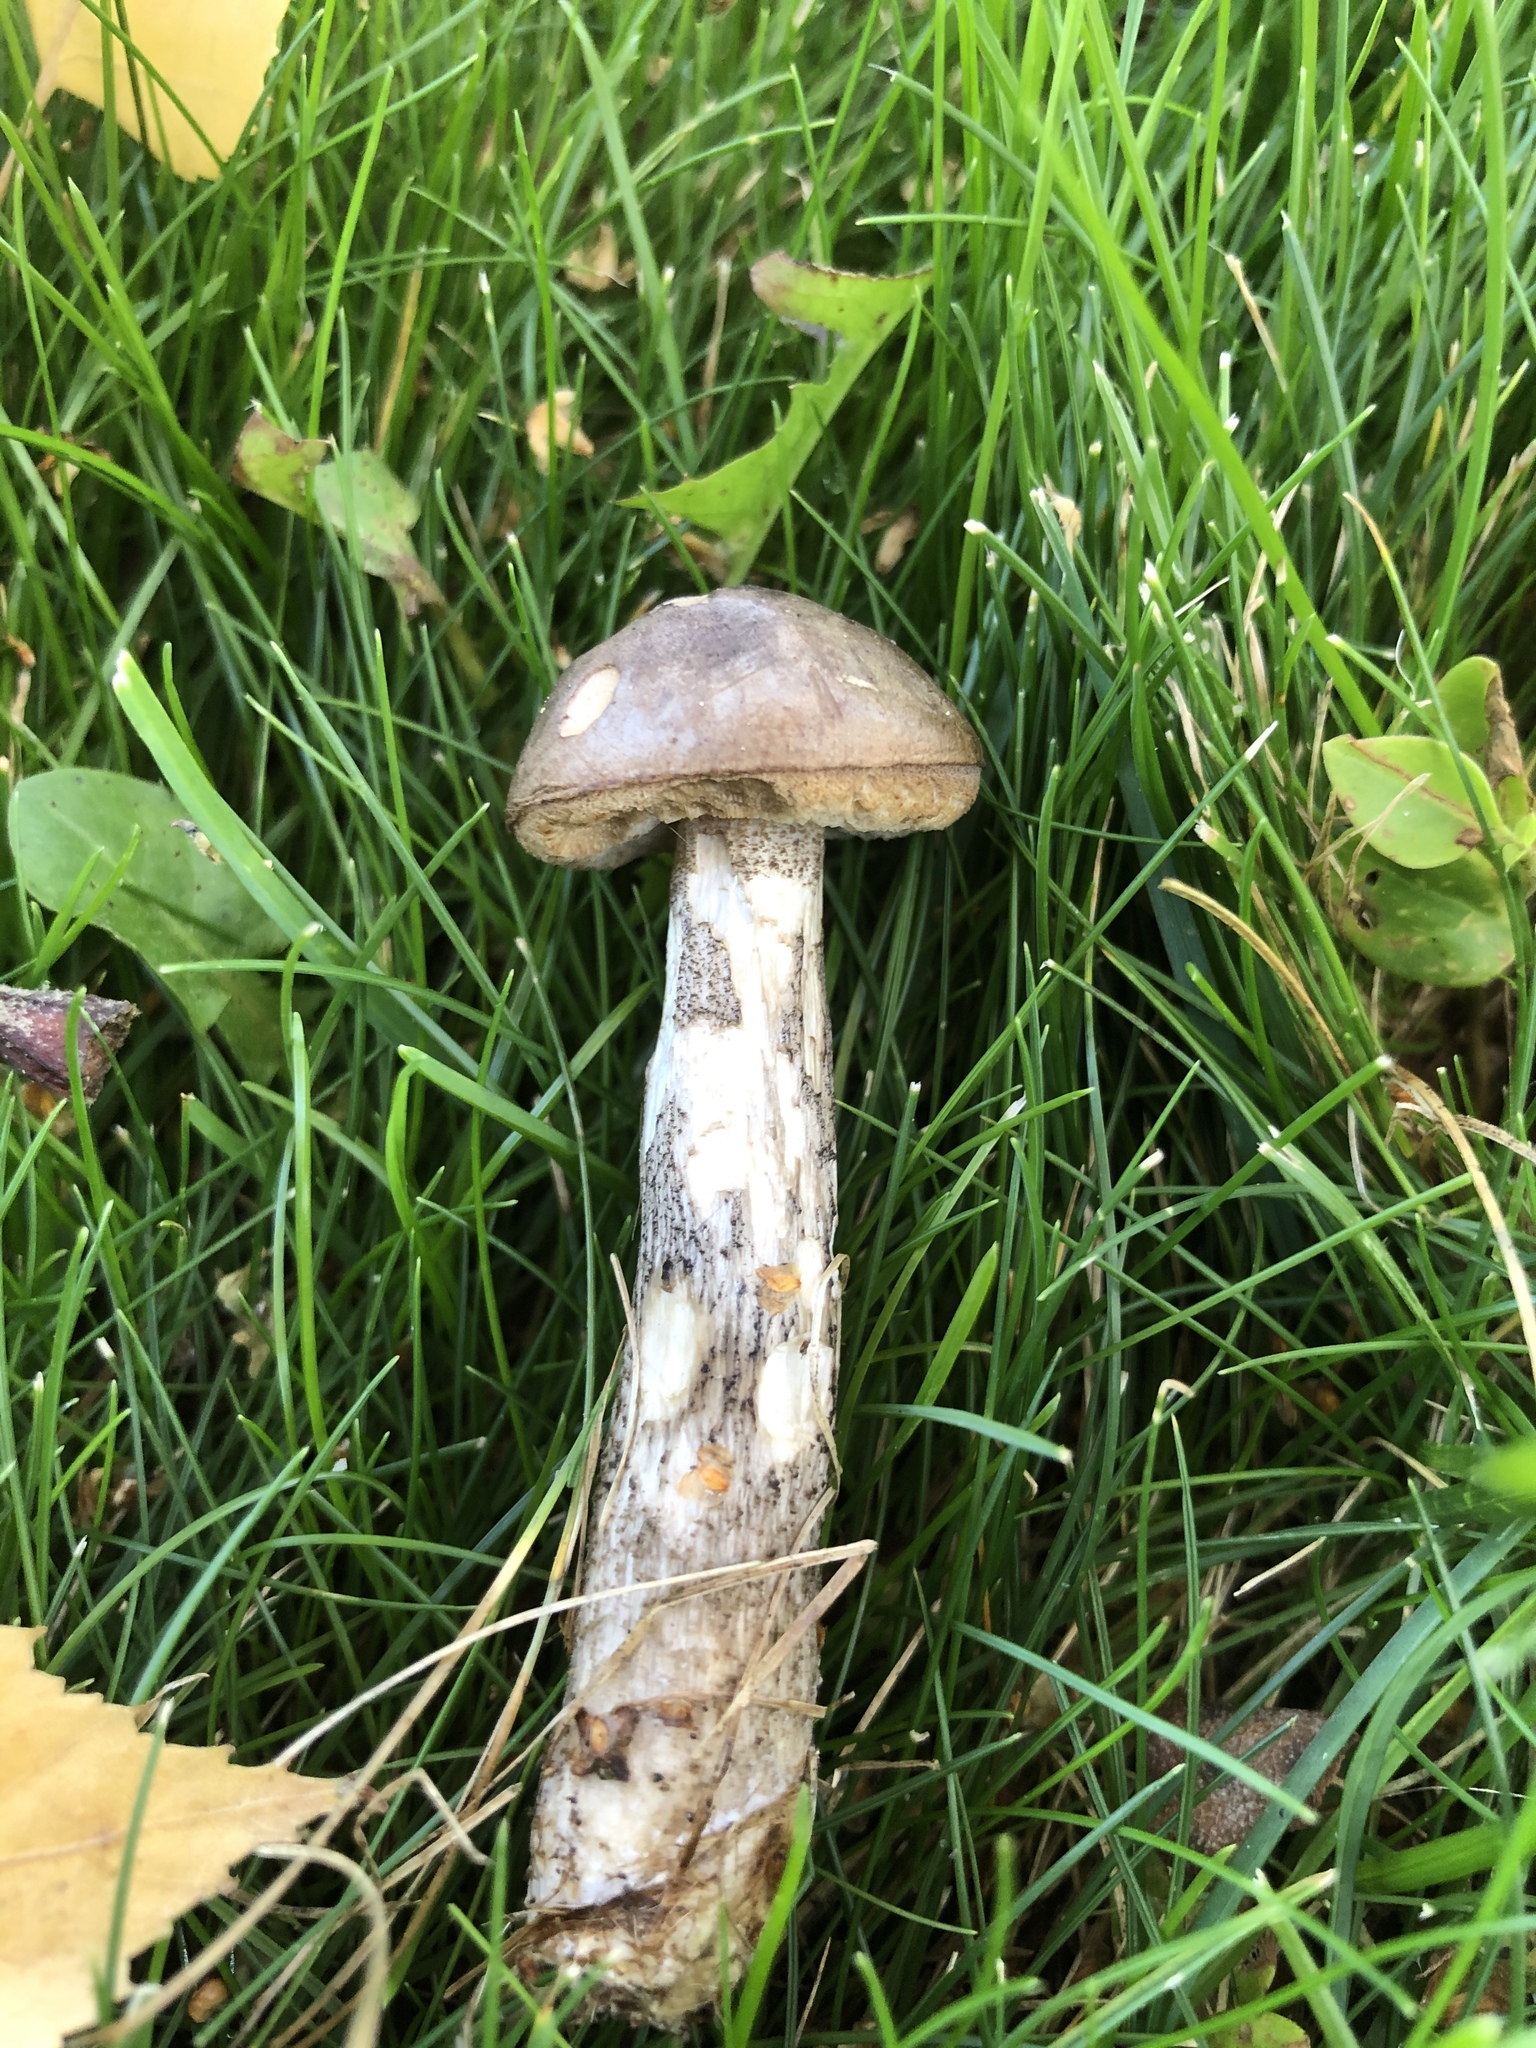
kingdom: Fungi
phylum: Basidiomycota
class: Agaricomycetes
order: Boletales
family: Boletaceae
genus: Leccinum
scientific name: Leccinum scabrum
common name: Blushing bolete
